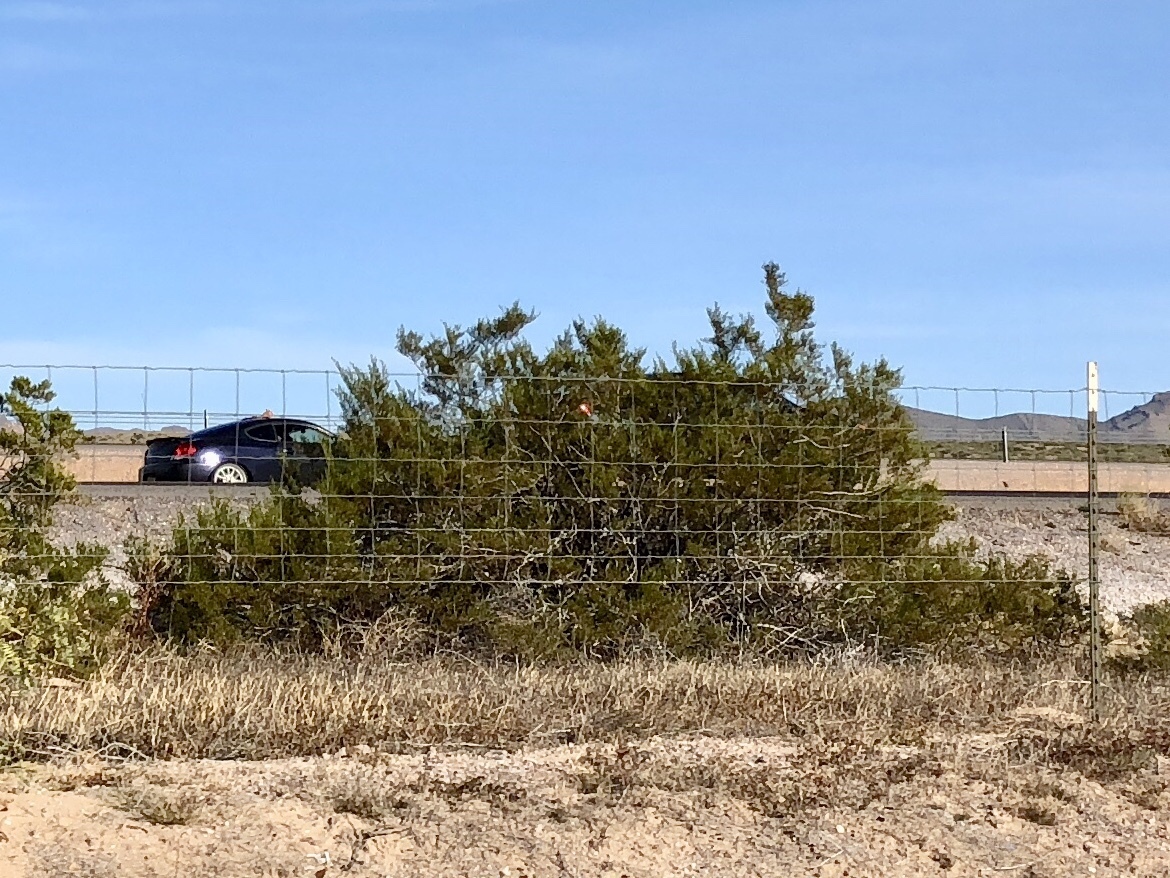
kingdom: Plantae
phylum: Tracheophyta
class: Magnoliopsida
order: Zygophyllales
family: Zygophyllaceae
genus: Larrea
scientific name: Larrea tridentata
